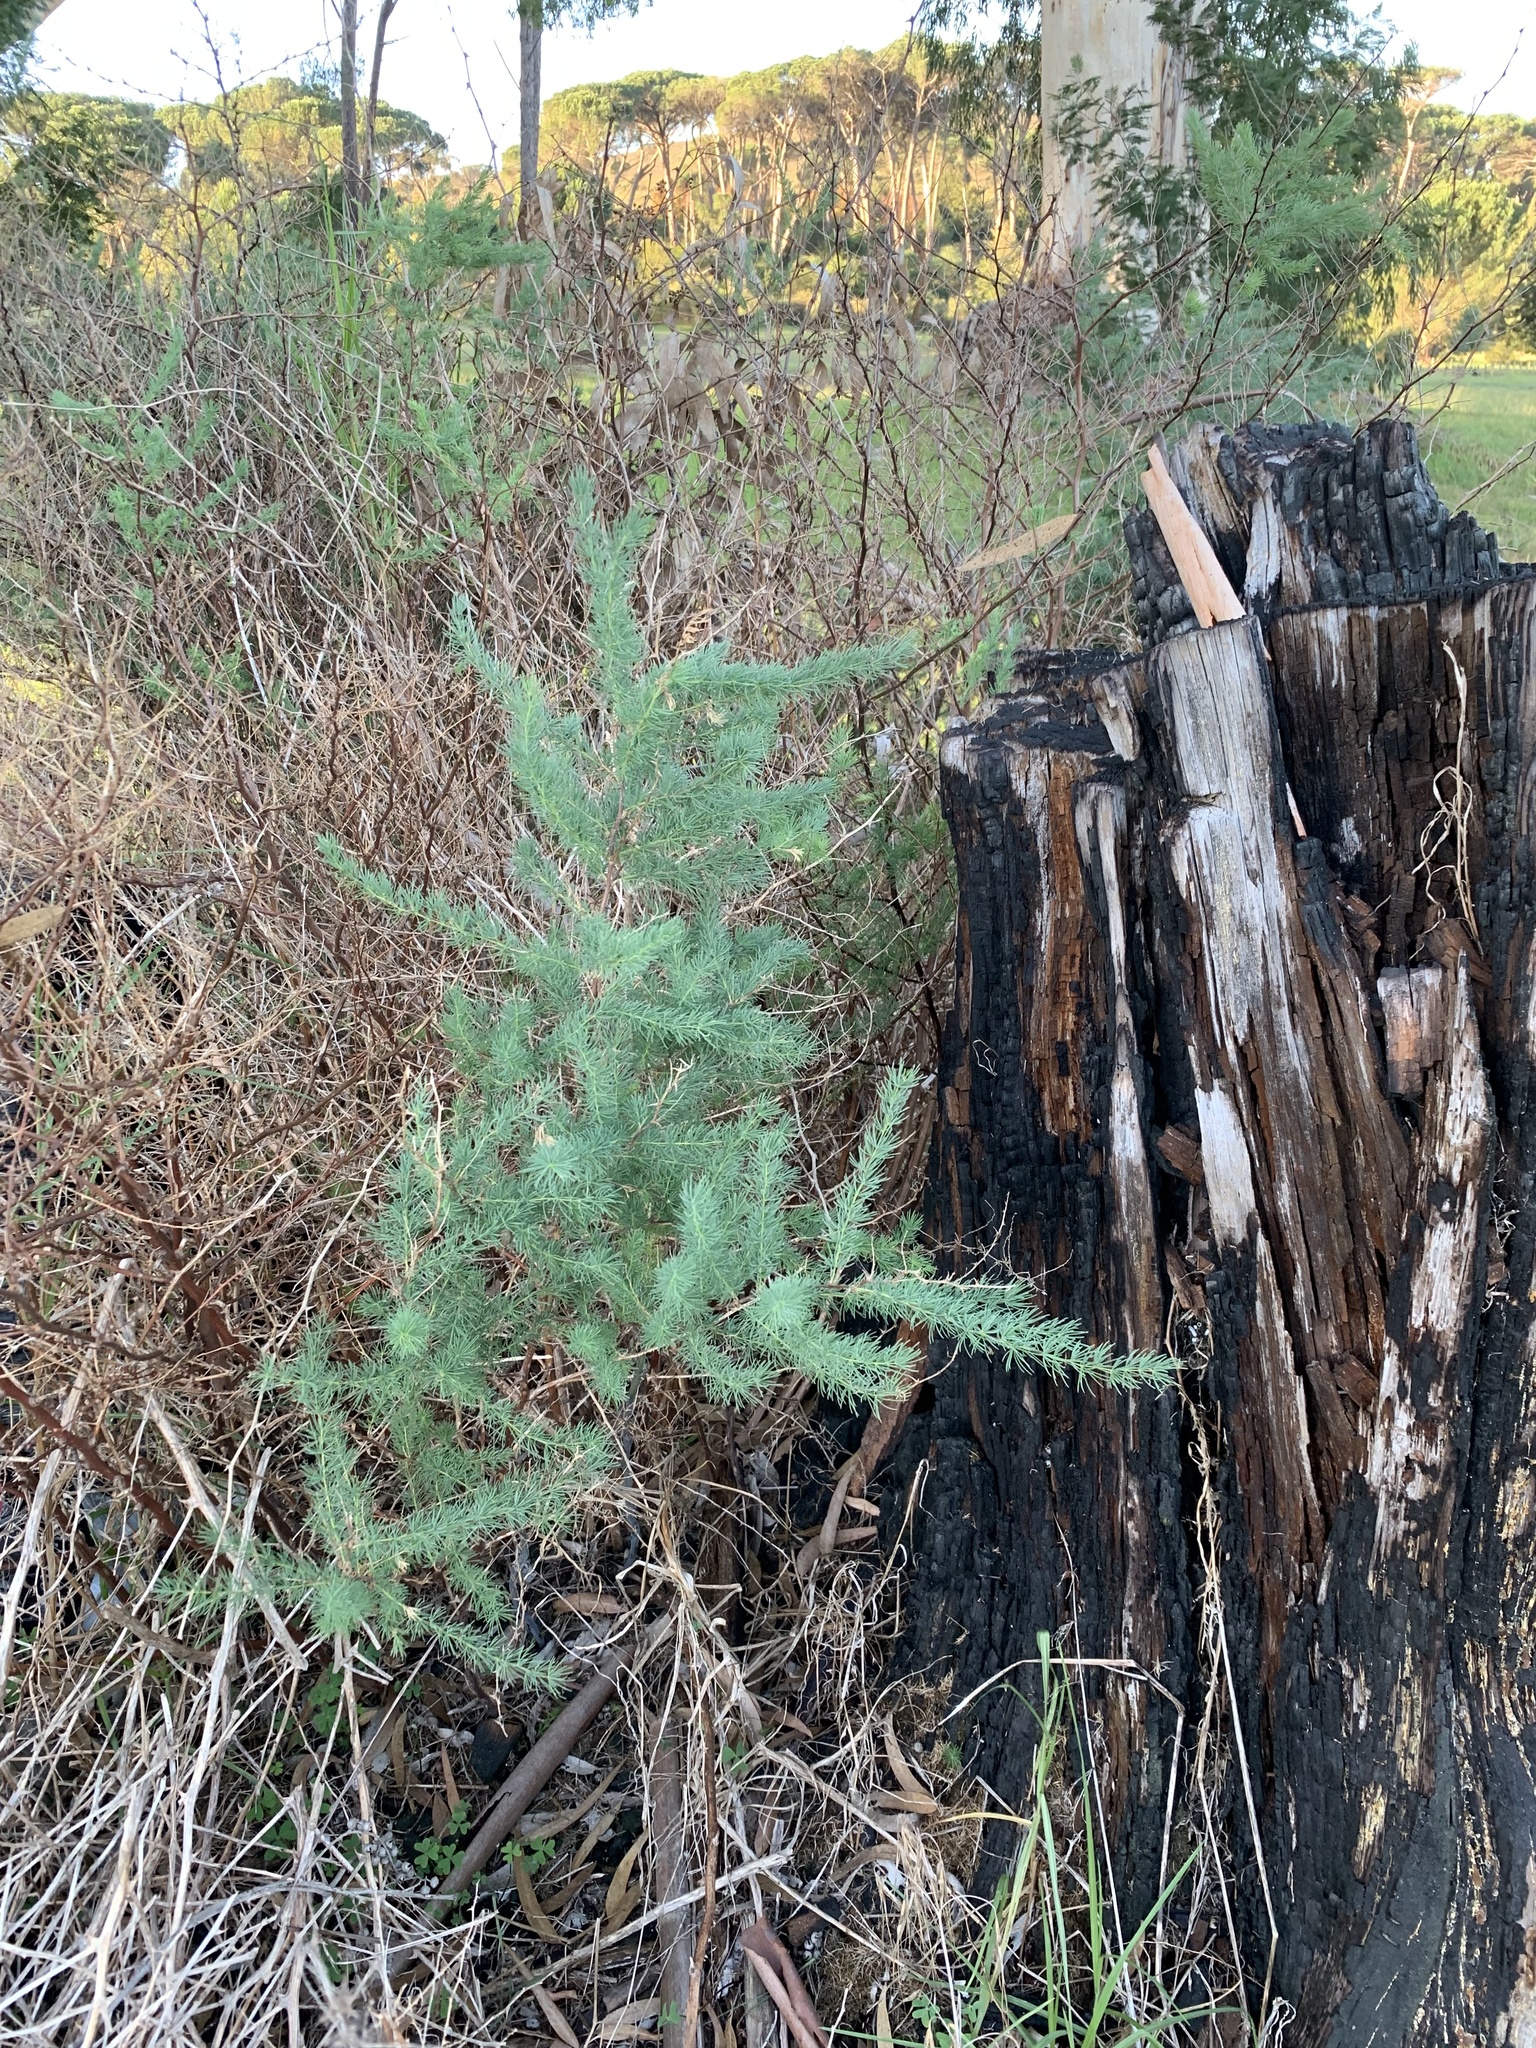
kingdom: Plantae
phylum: Tracheophyta
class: Liliopsida
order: Asparagales
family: Asparagaceae
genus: Asparagus
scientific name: Asparagus rubicundus
